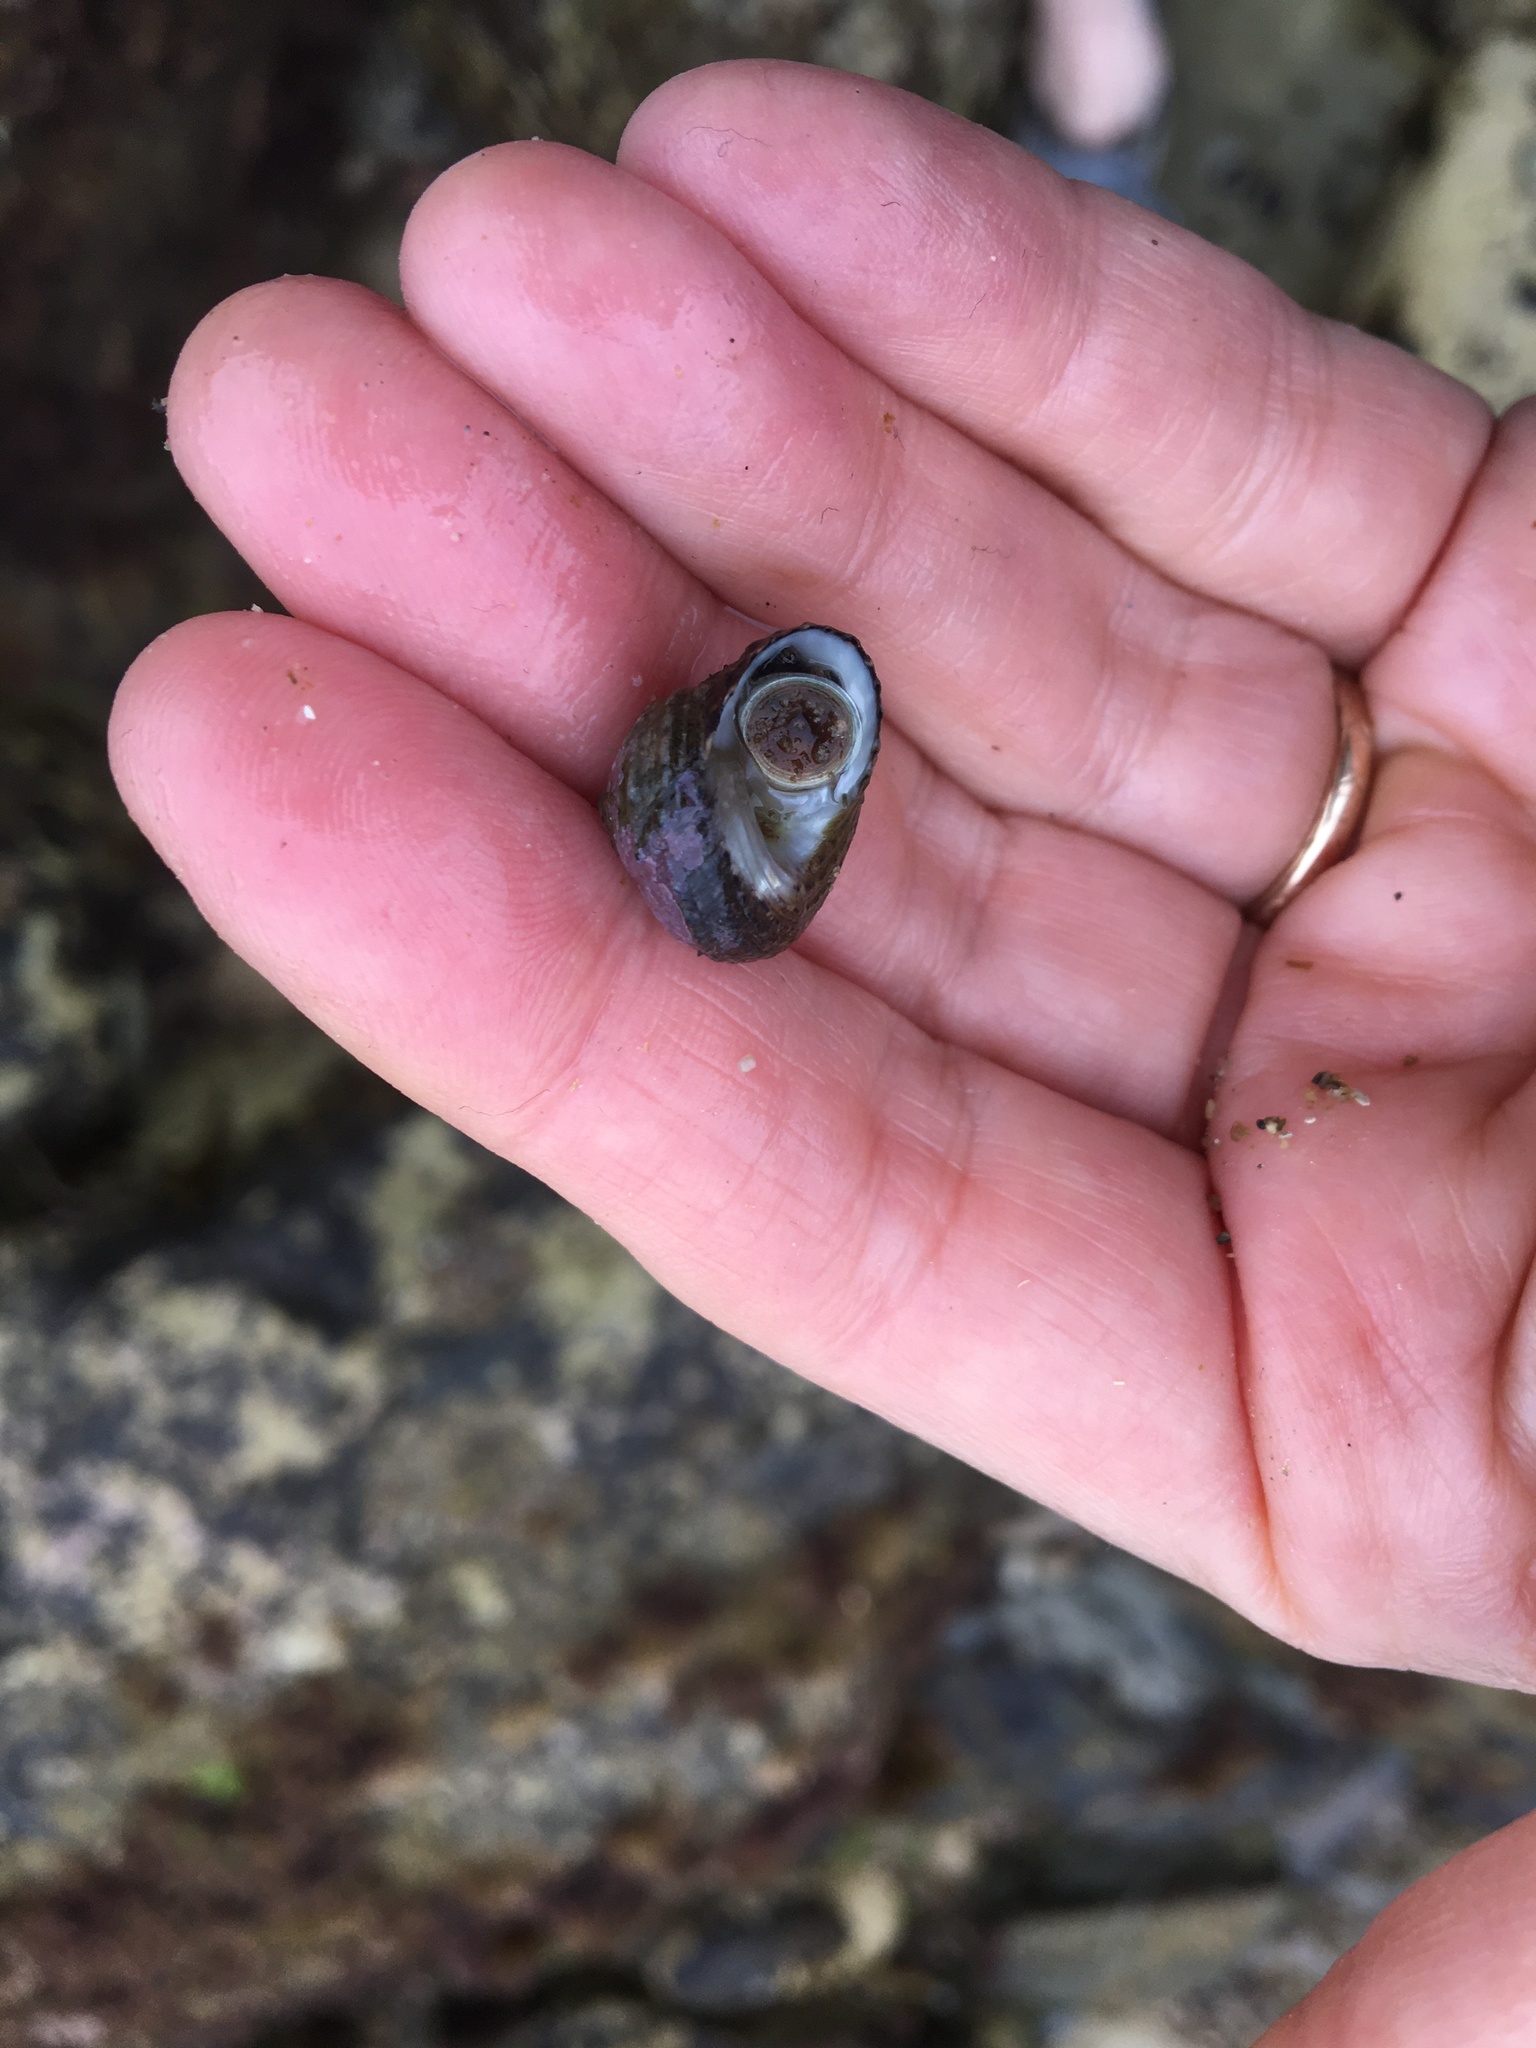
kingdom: Animalia
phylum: Mollusca
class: Gastropoda
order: Trochida
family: Tegulidae
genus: Tegula
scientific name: Tegula eiseni
